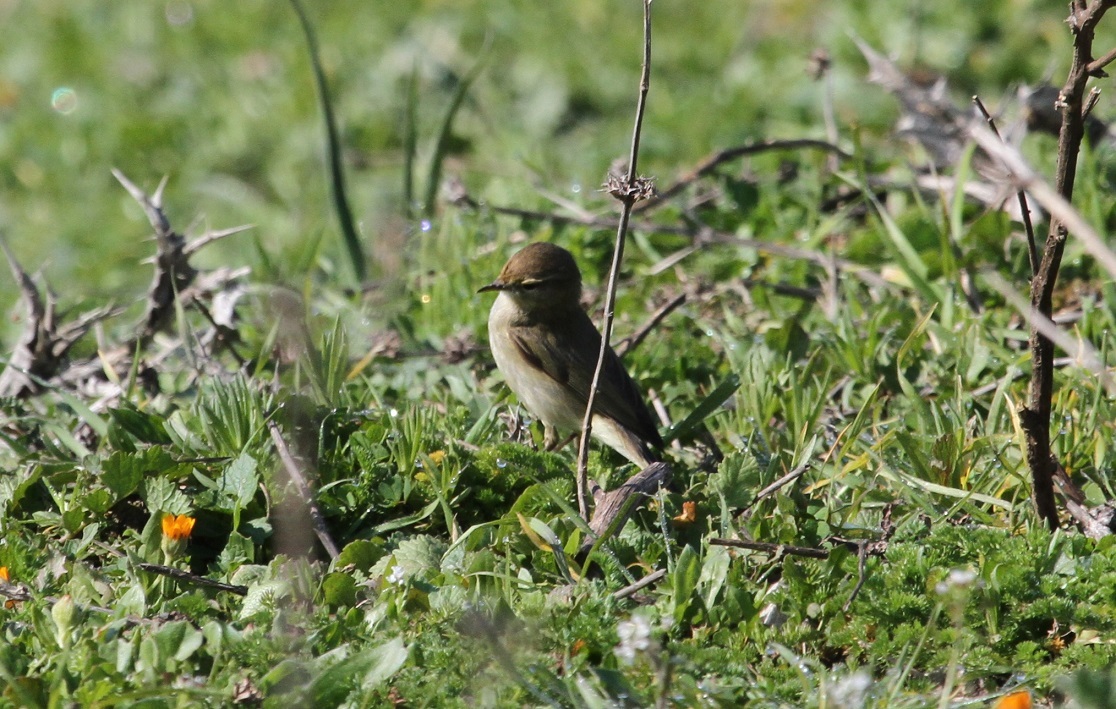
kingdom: Animalia
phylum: Chordata
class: Aves
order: Passeriformes
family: Phylloscopidae
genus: Phylloscopus
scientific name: Phylloscopus collybita
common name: Common chiffchaff
